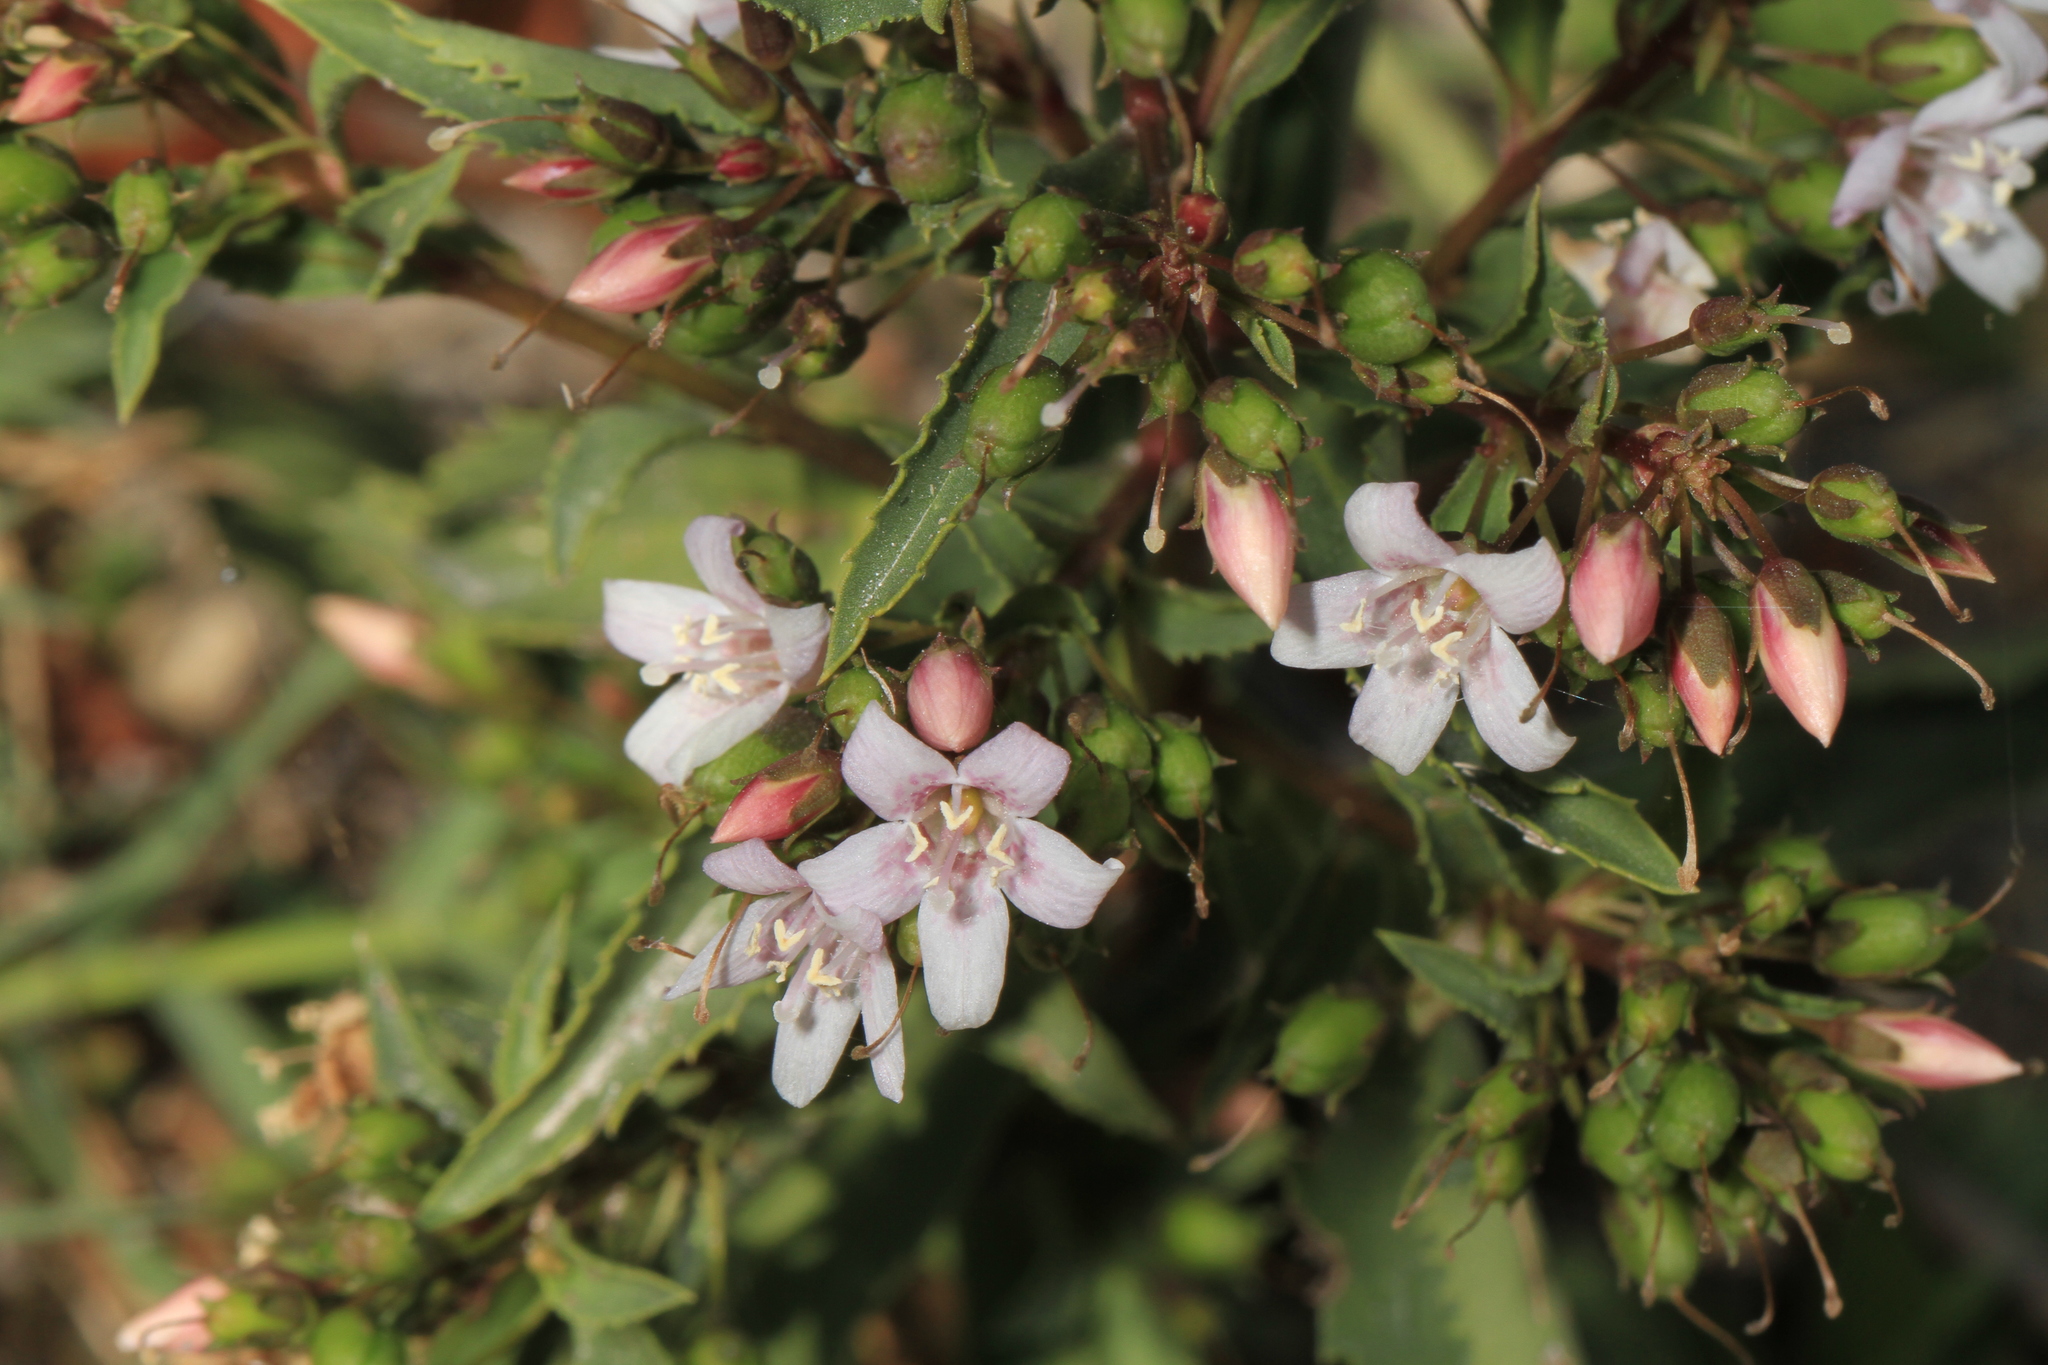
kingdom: Plantae
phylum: Tracheophyta
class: Magnoliopsida
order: Lamiales
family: Scrophulariaceae
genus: Capraria
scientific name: Capraria biflora
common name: Goatweed
